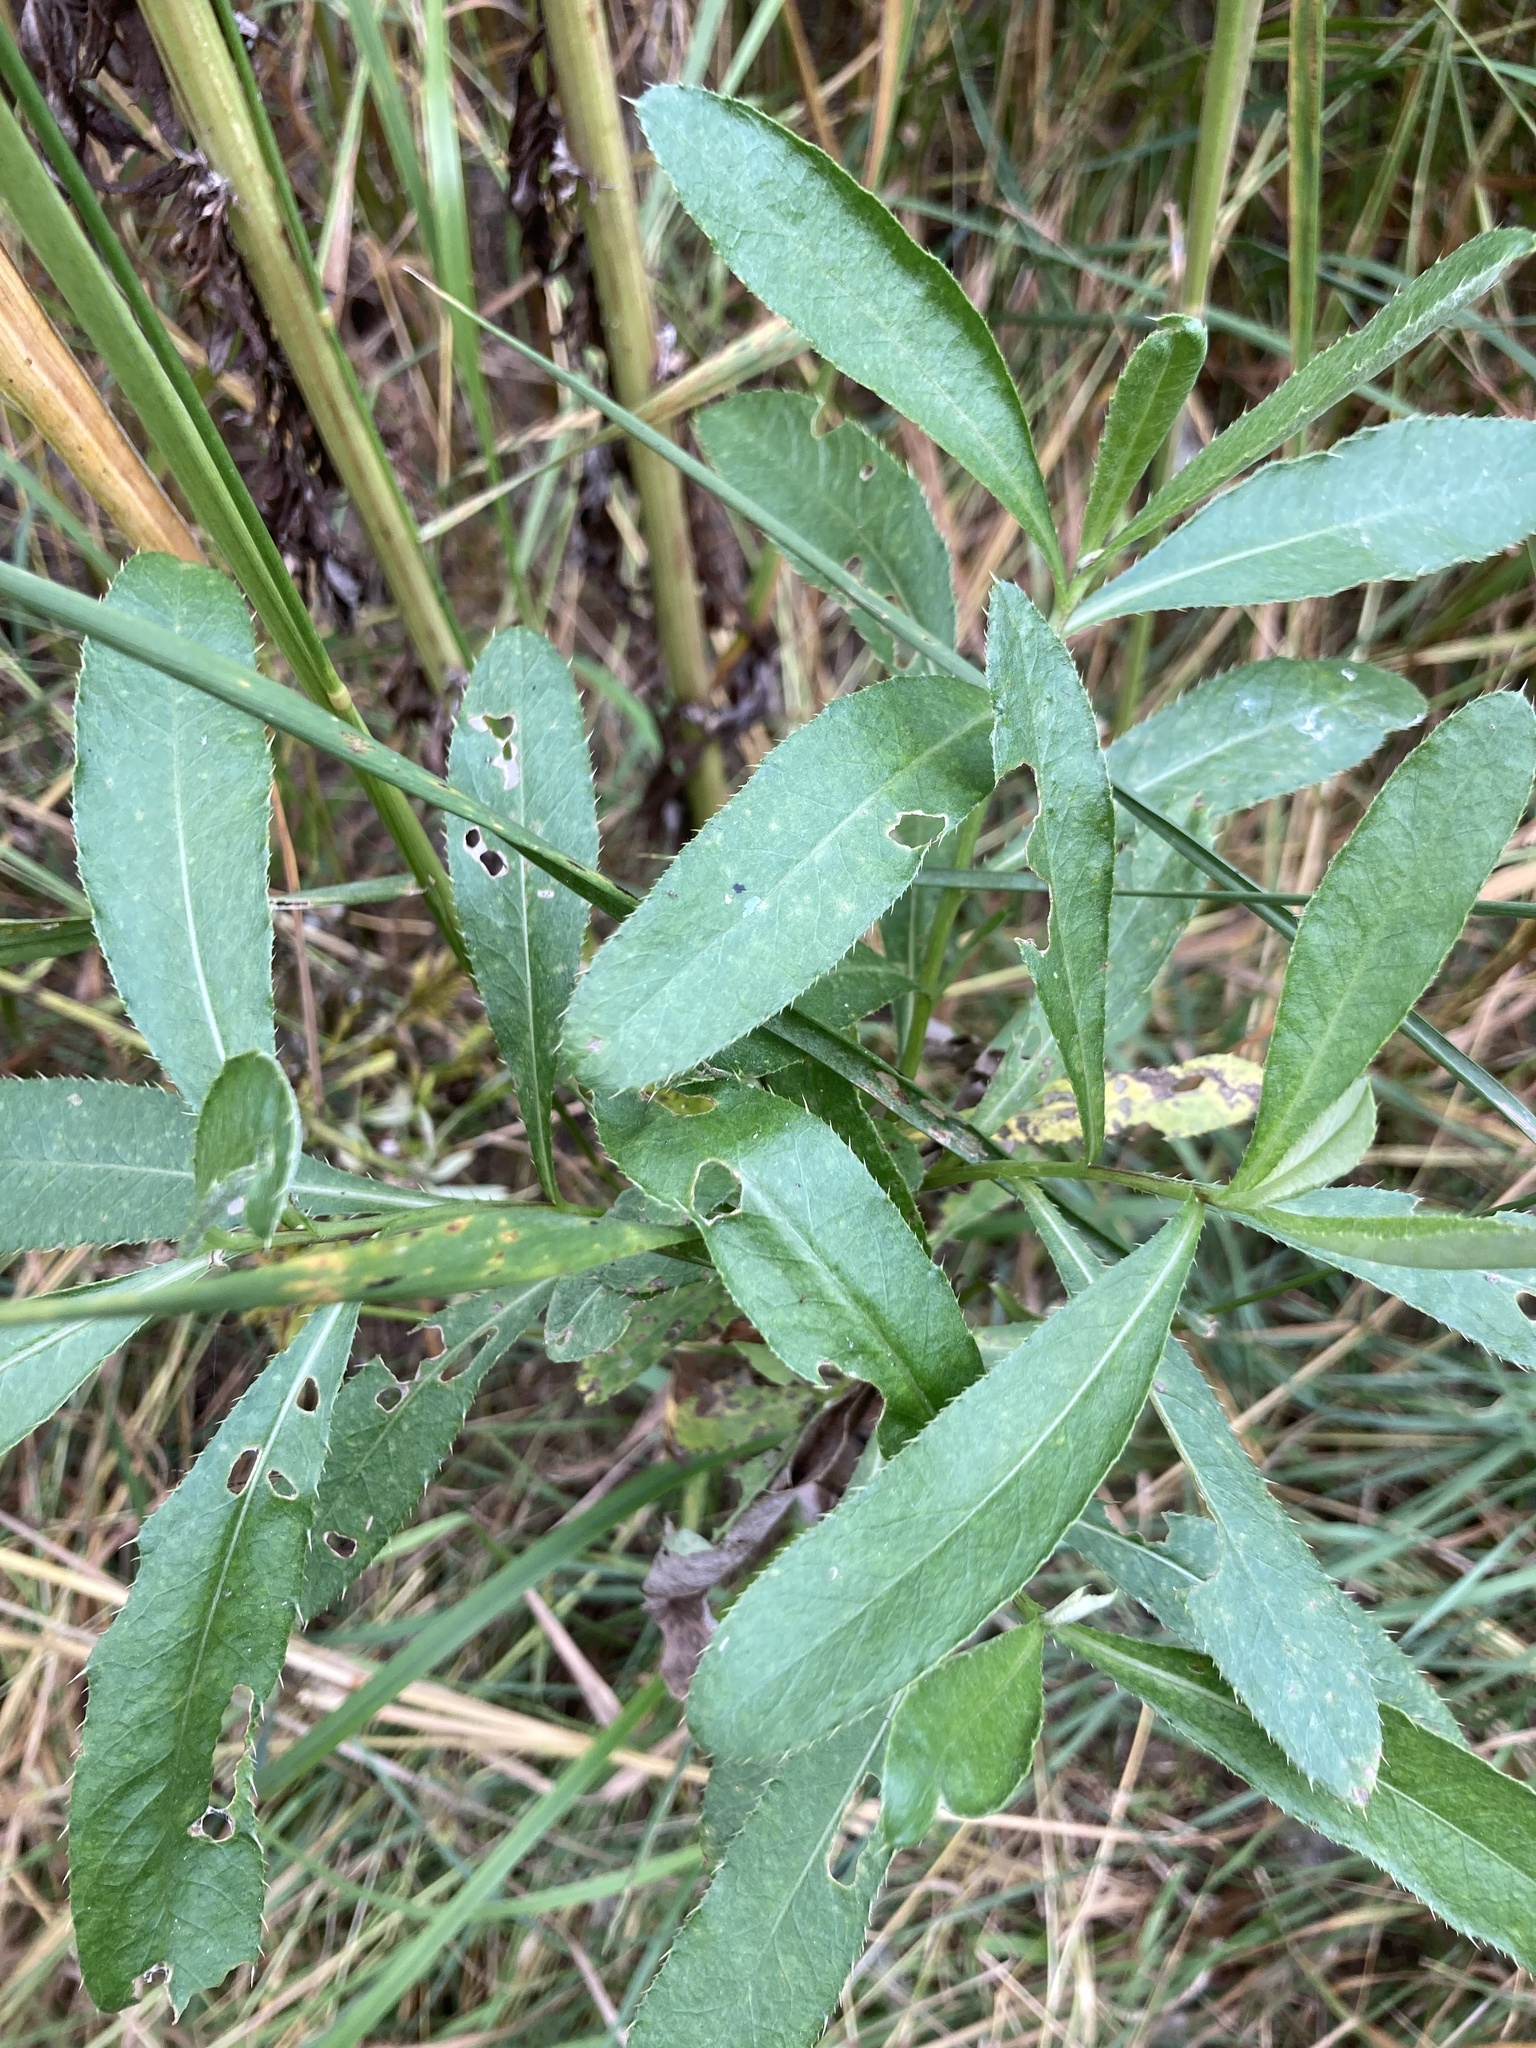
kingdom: Plantae
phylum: Tracheophyta
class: Magnoliopsida
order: Asterales
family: Asteraceae
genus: Cirsium
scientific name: Cirsium arvense
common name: Creeping thistle
